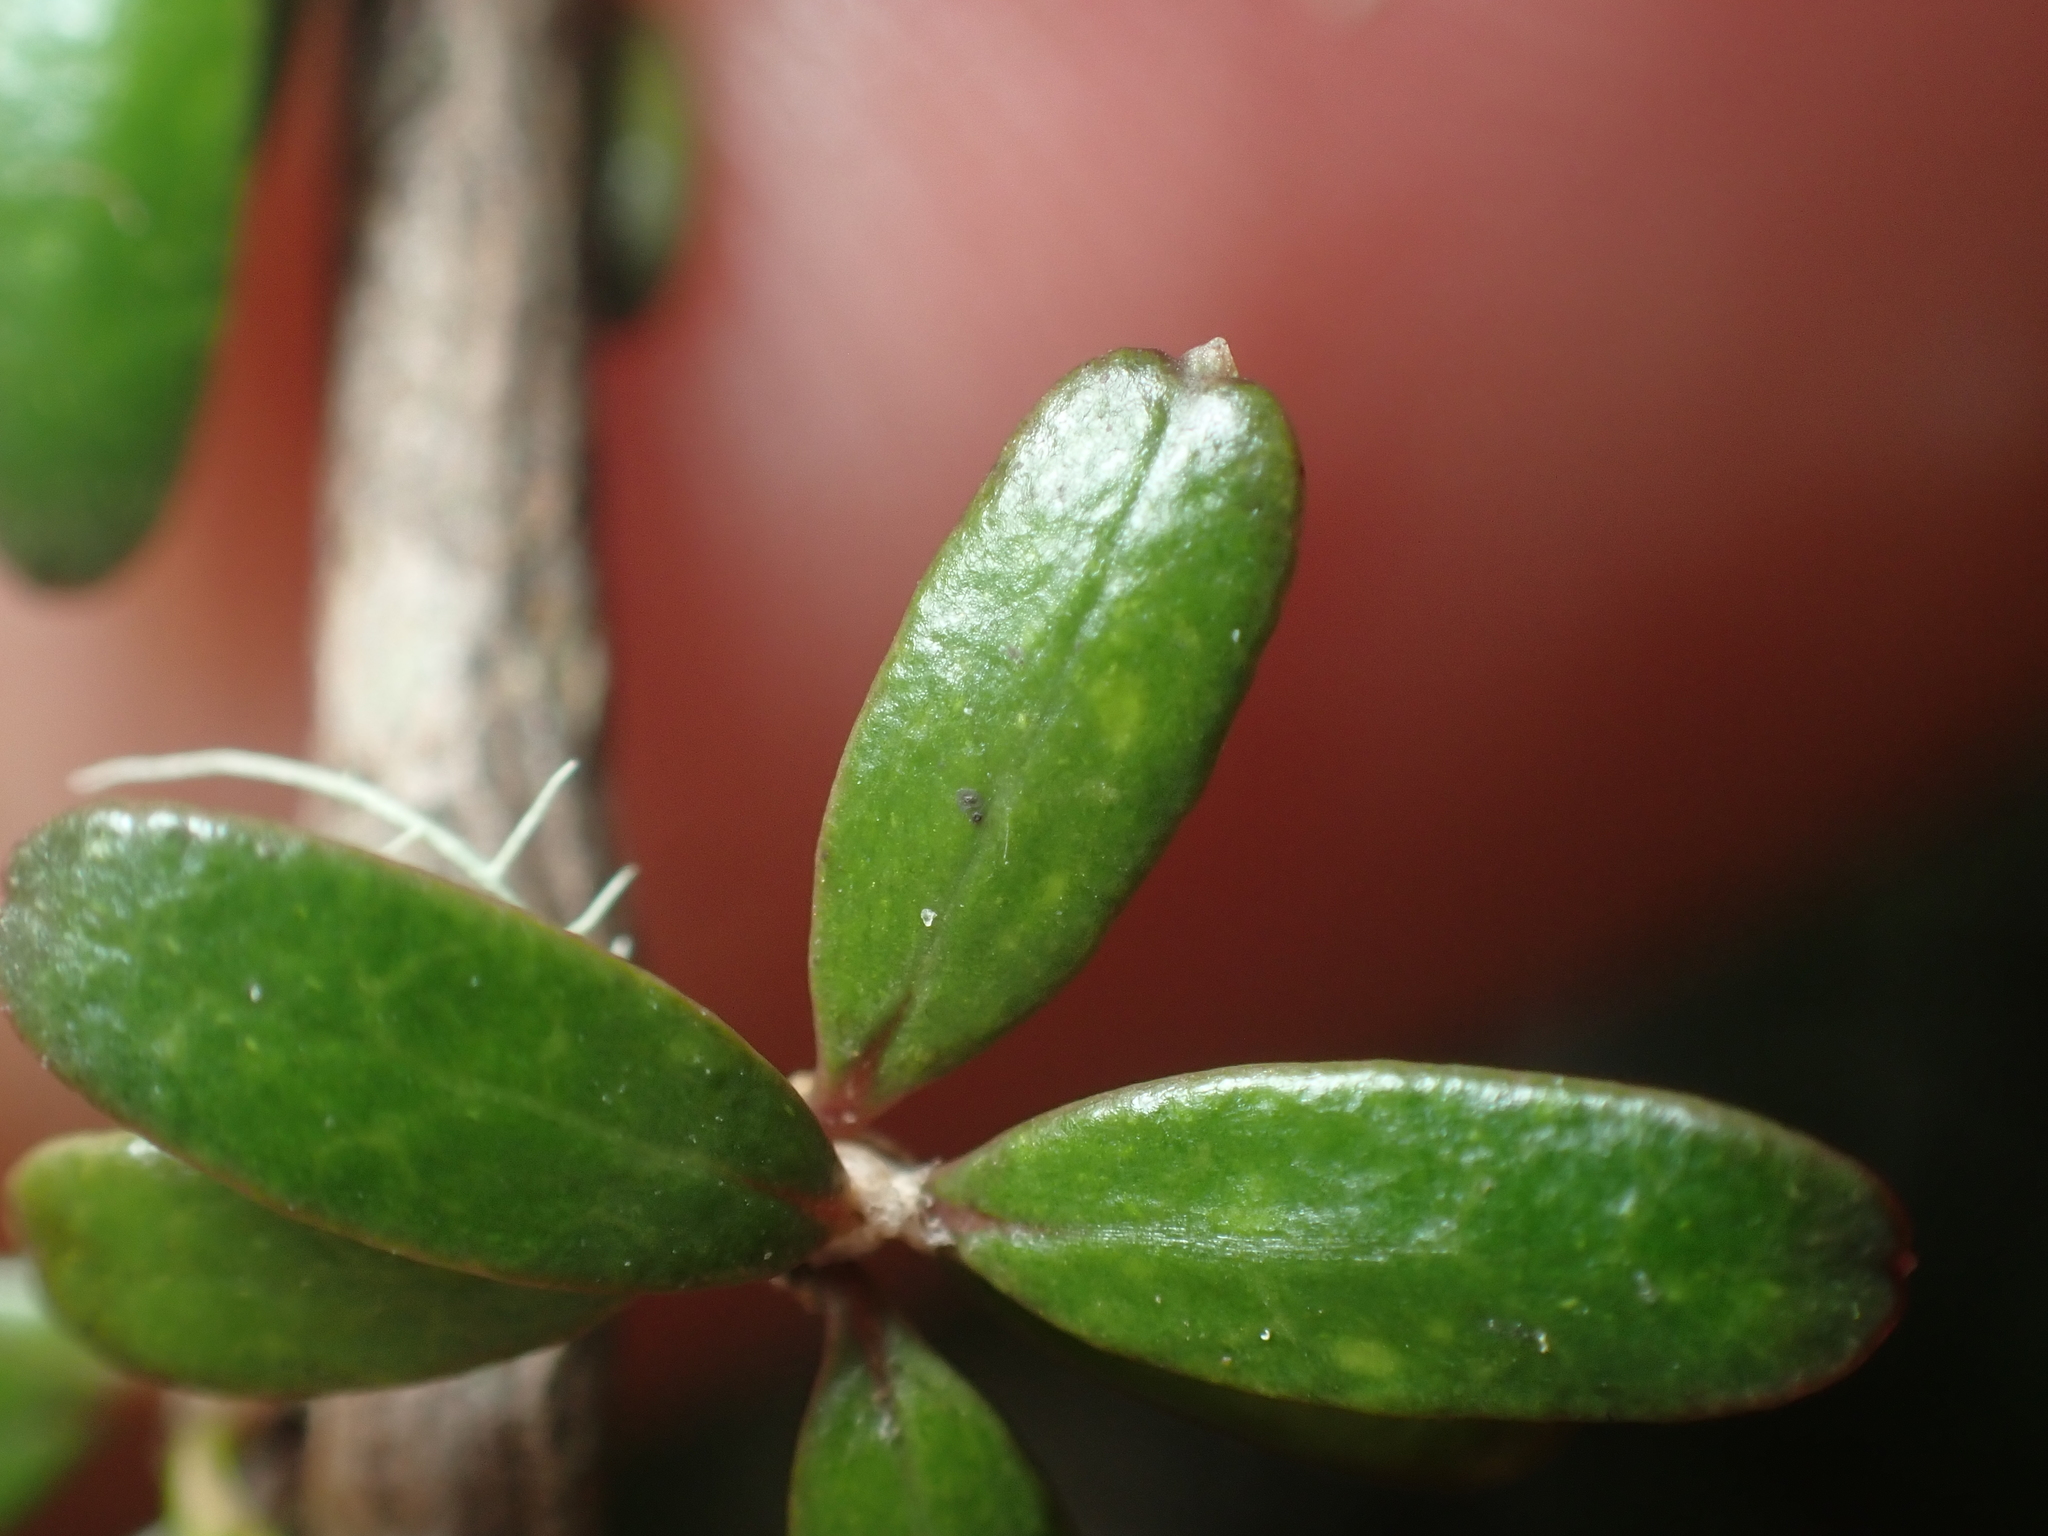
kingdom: Plantae
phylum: Tracheophyta
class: Magnoliopsida
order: Gentianales
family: Rubiaceae
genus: Coprosma
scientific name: Coprosma obconica
